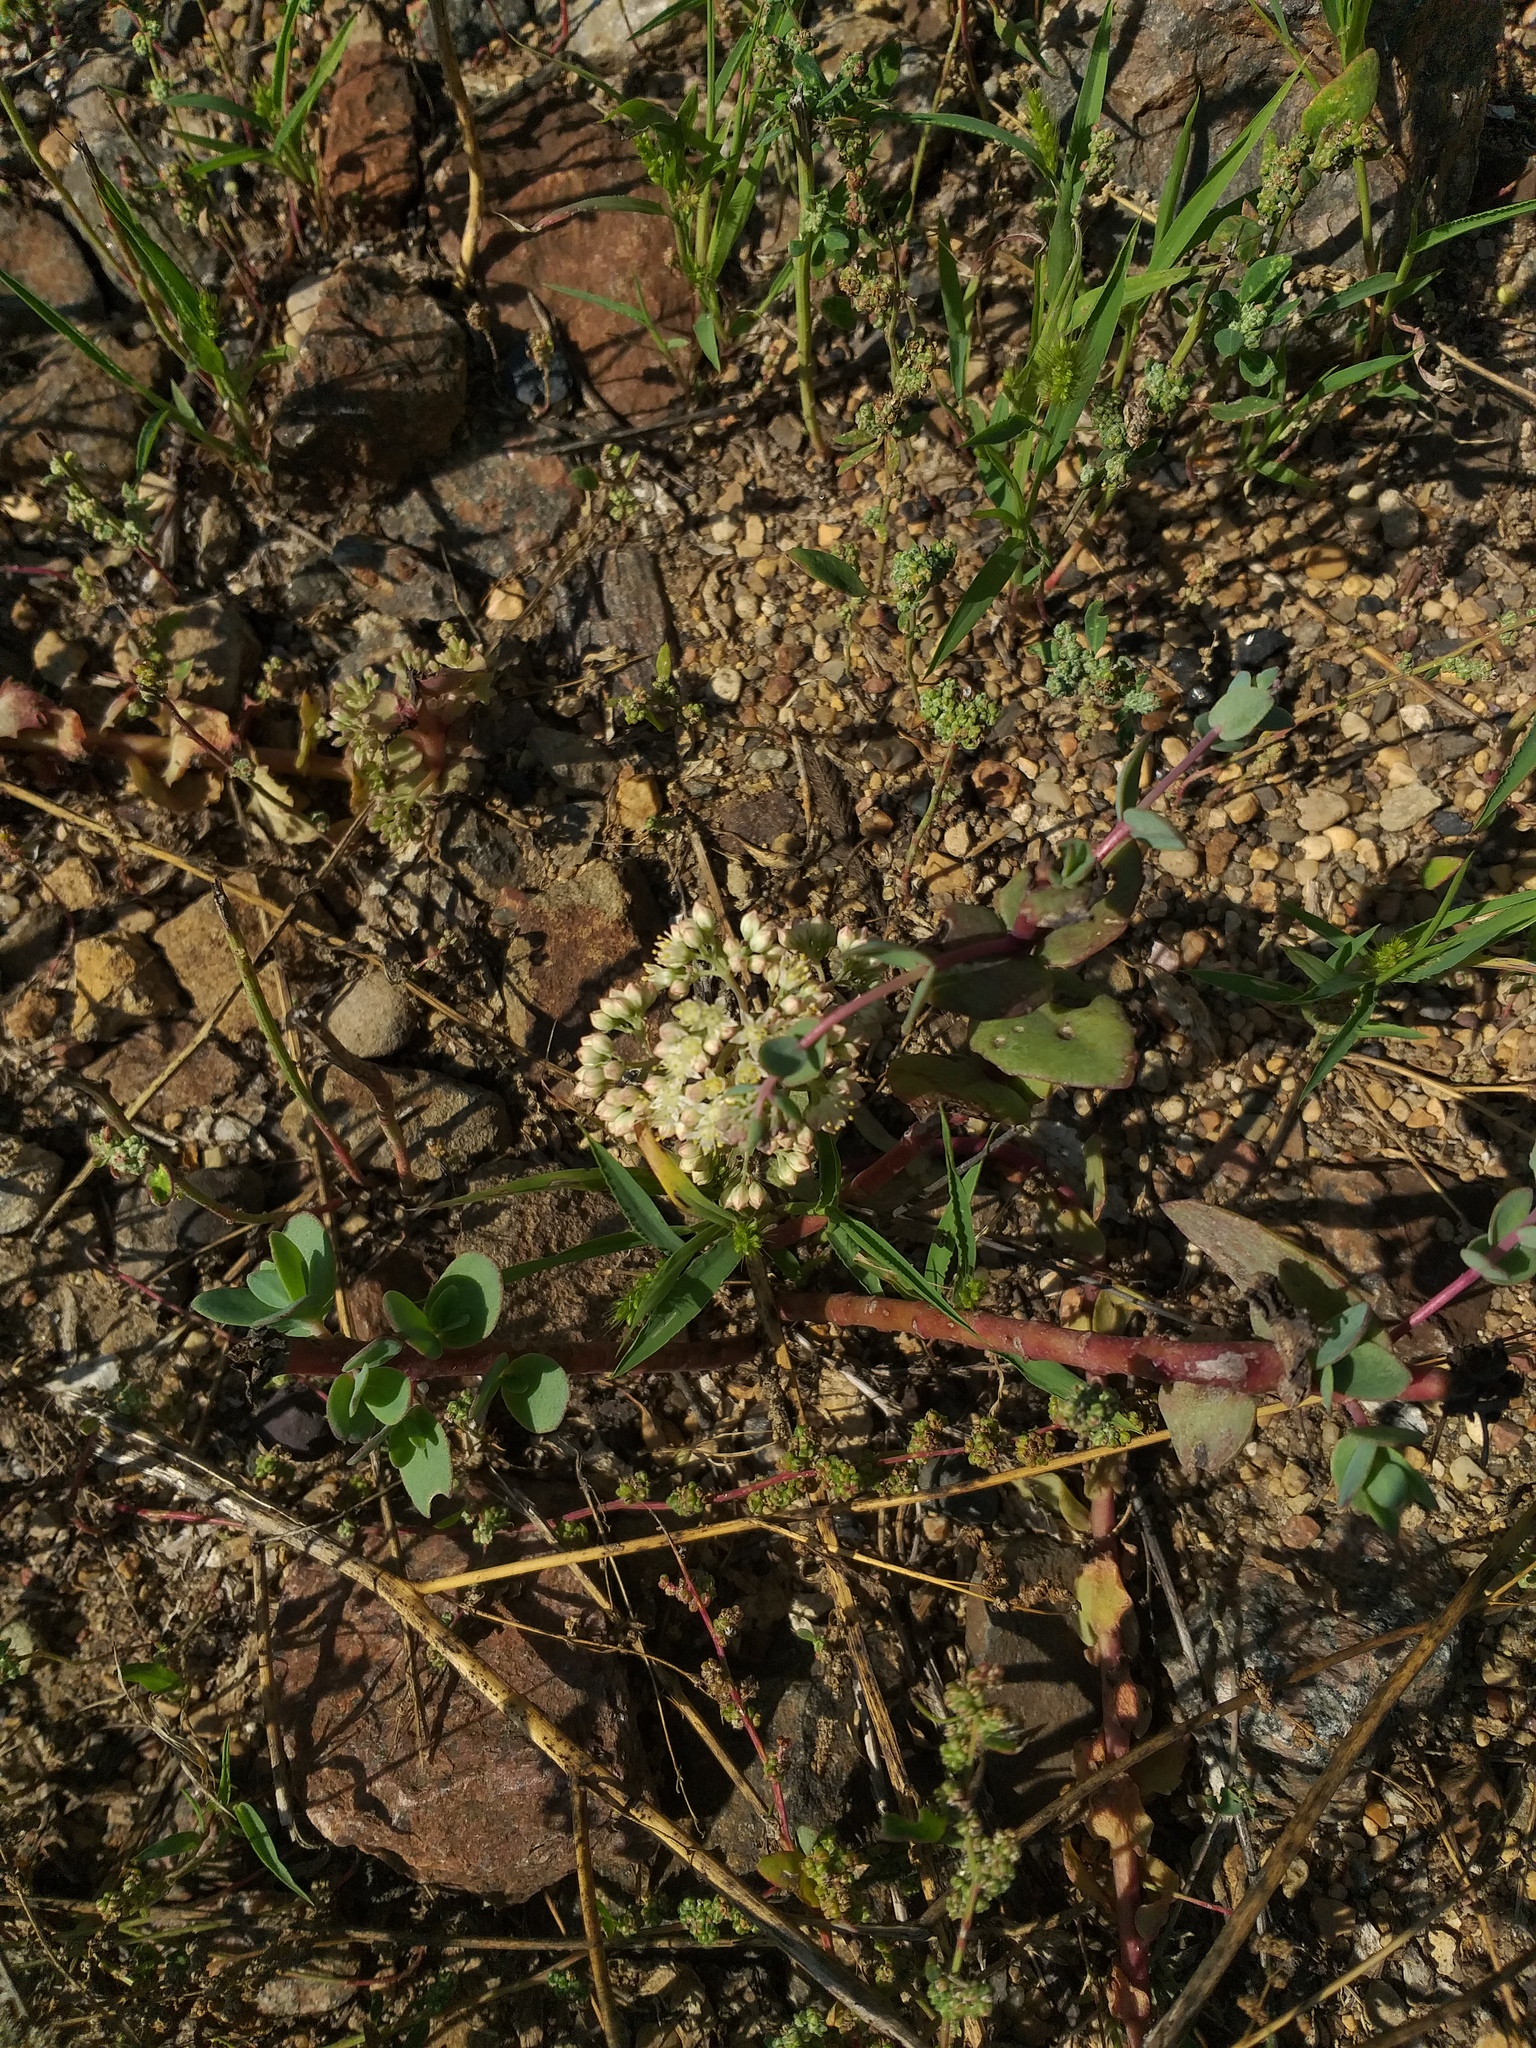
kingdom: Plantae
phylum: Tracheophyta
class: Magnoliopsida
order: Saxifragales
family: Crassulaceae
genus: Hylotelephium
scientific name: Hylotelephium maximum
